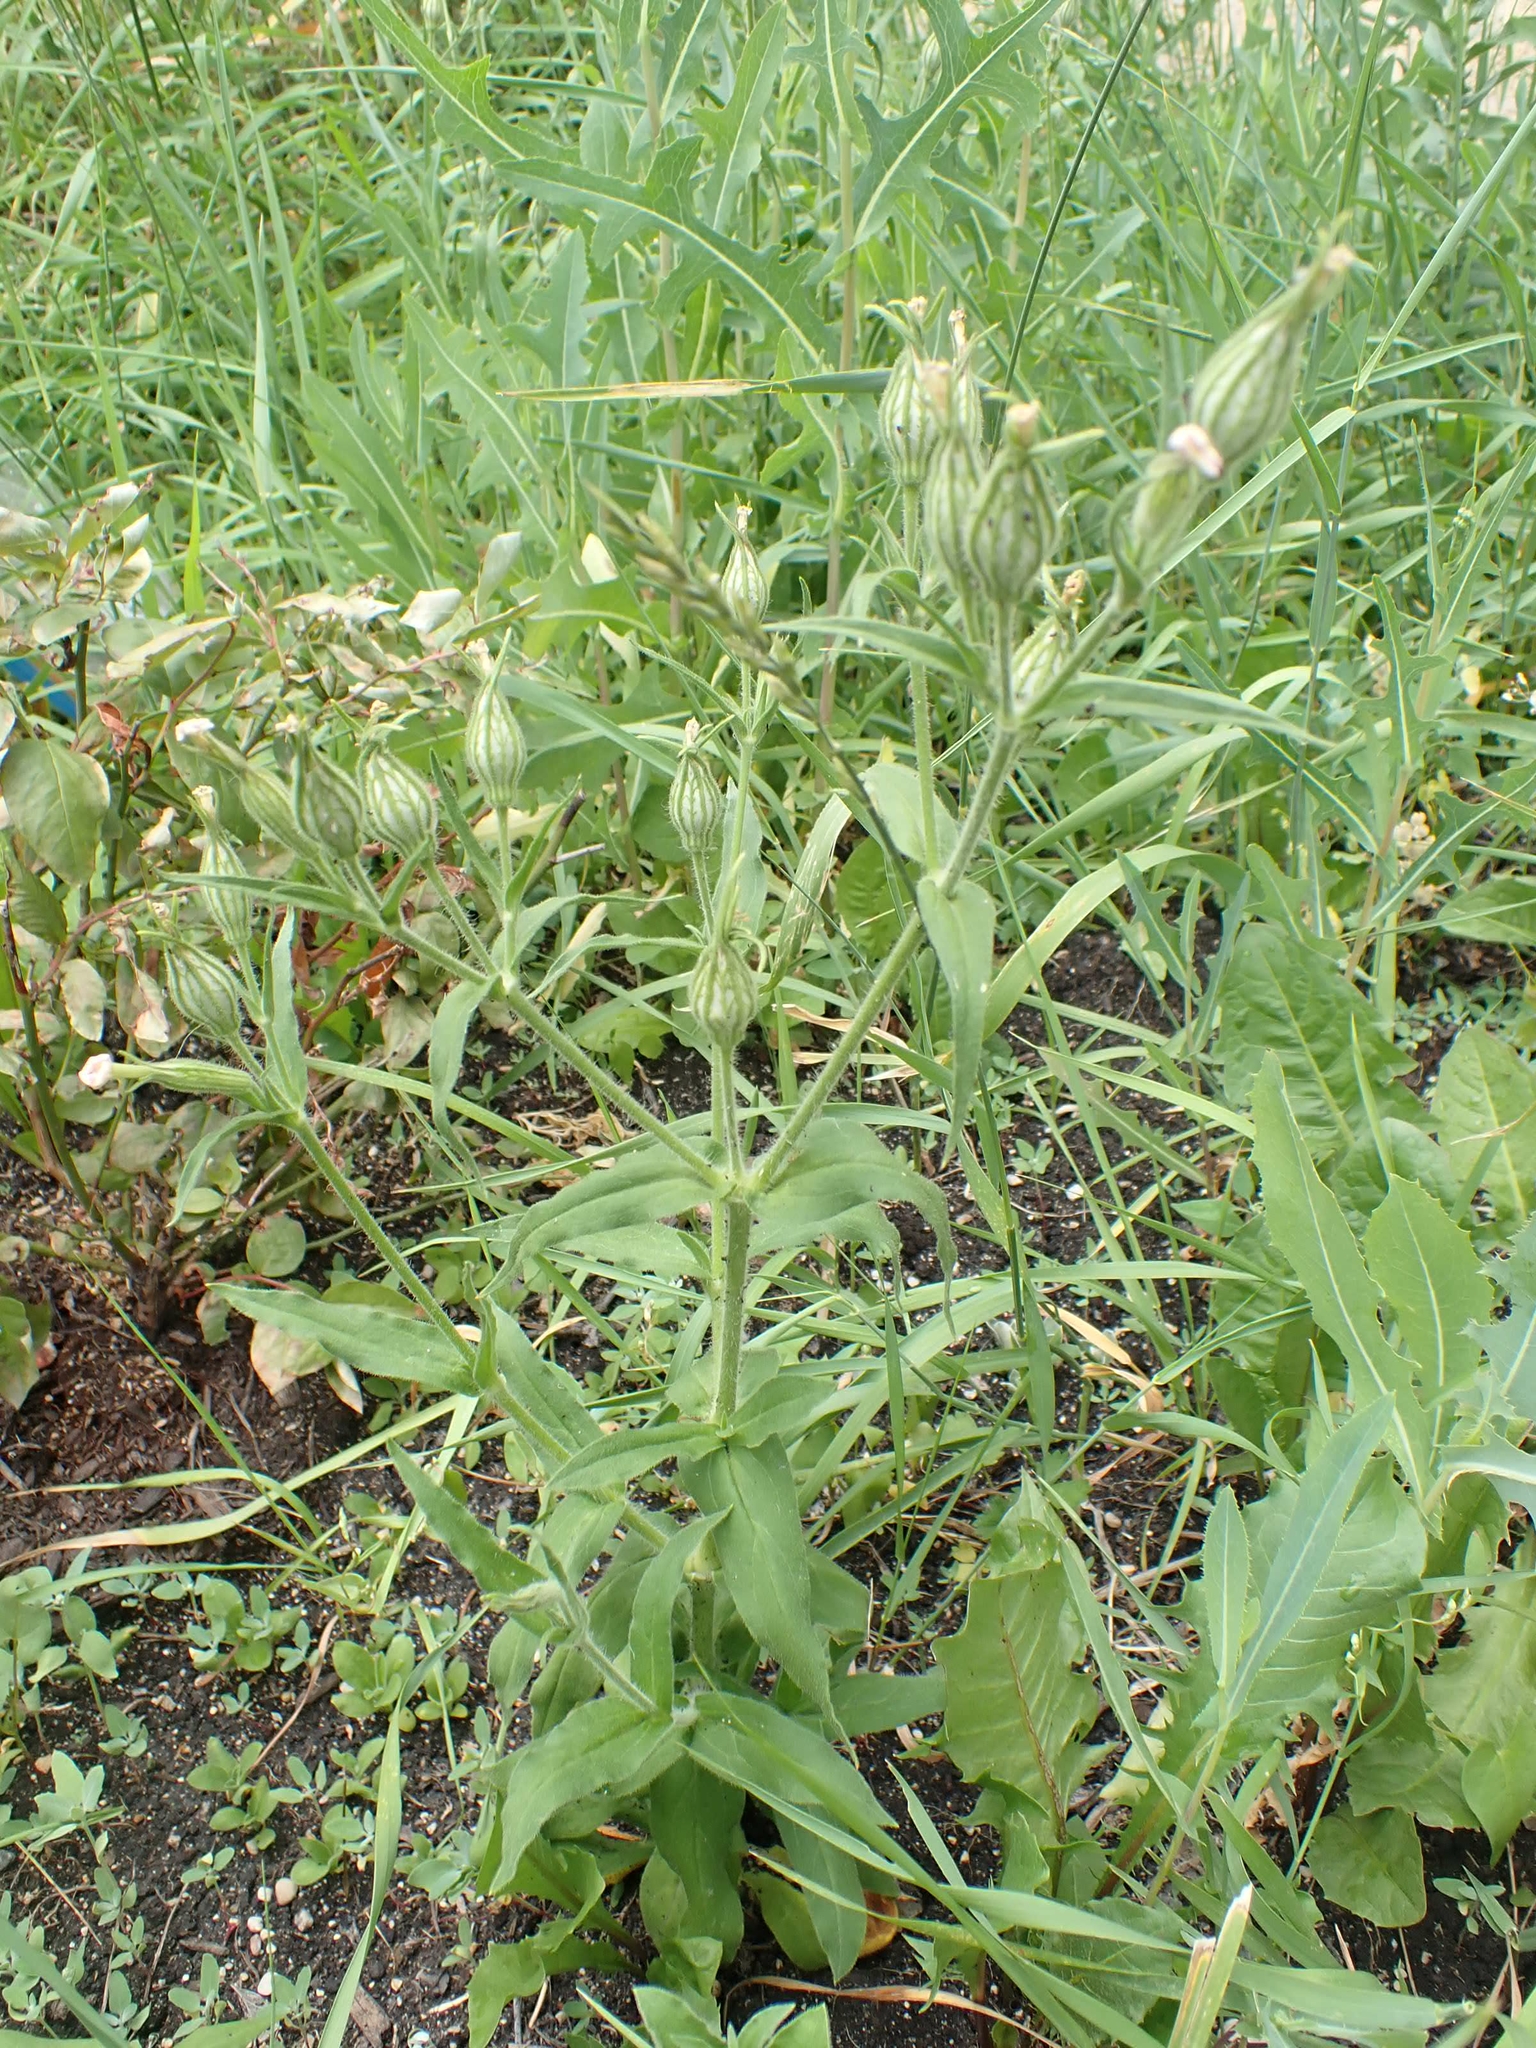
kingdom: Plantae
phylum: Tracheophyta
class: Magnoliopsida
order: Caryophyllales
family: Caryophyllaceae
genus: Silene
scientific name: Silene noctiflora
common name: Night-flowering catchfly
